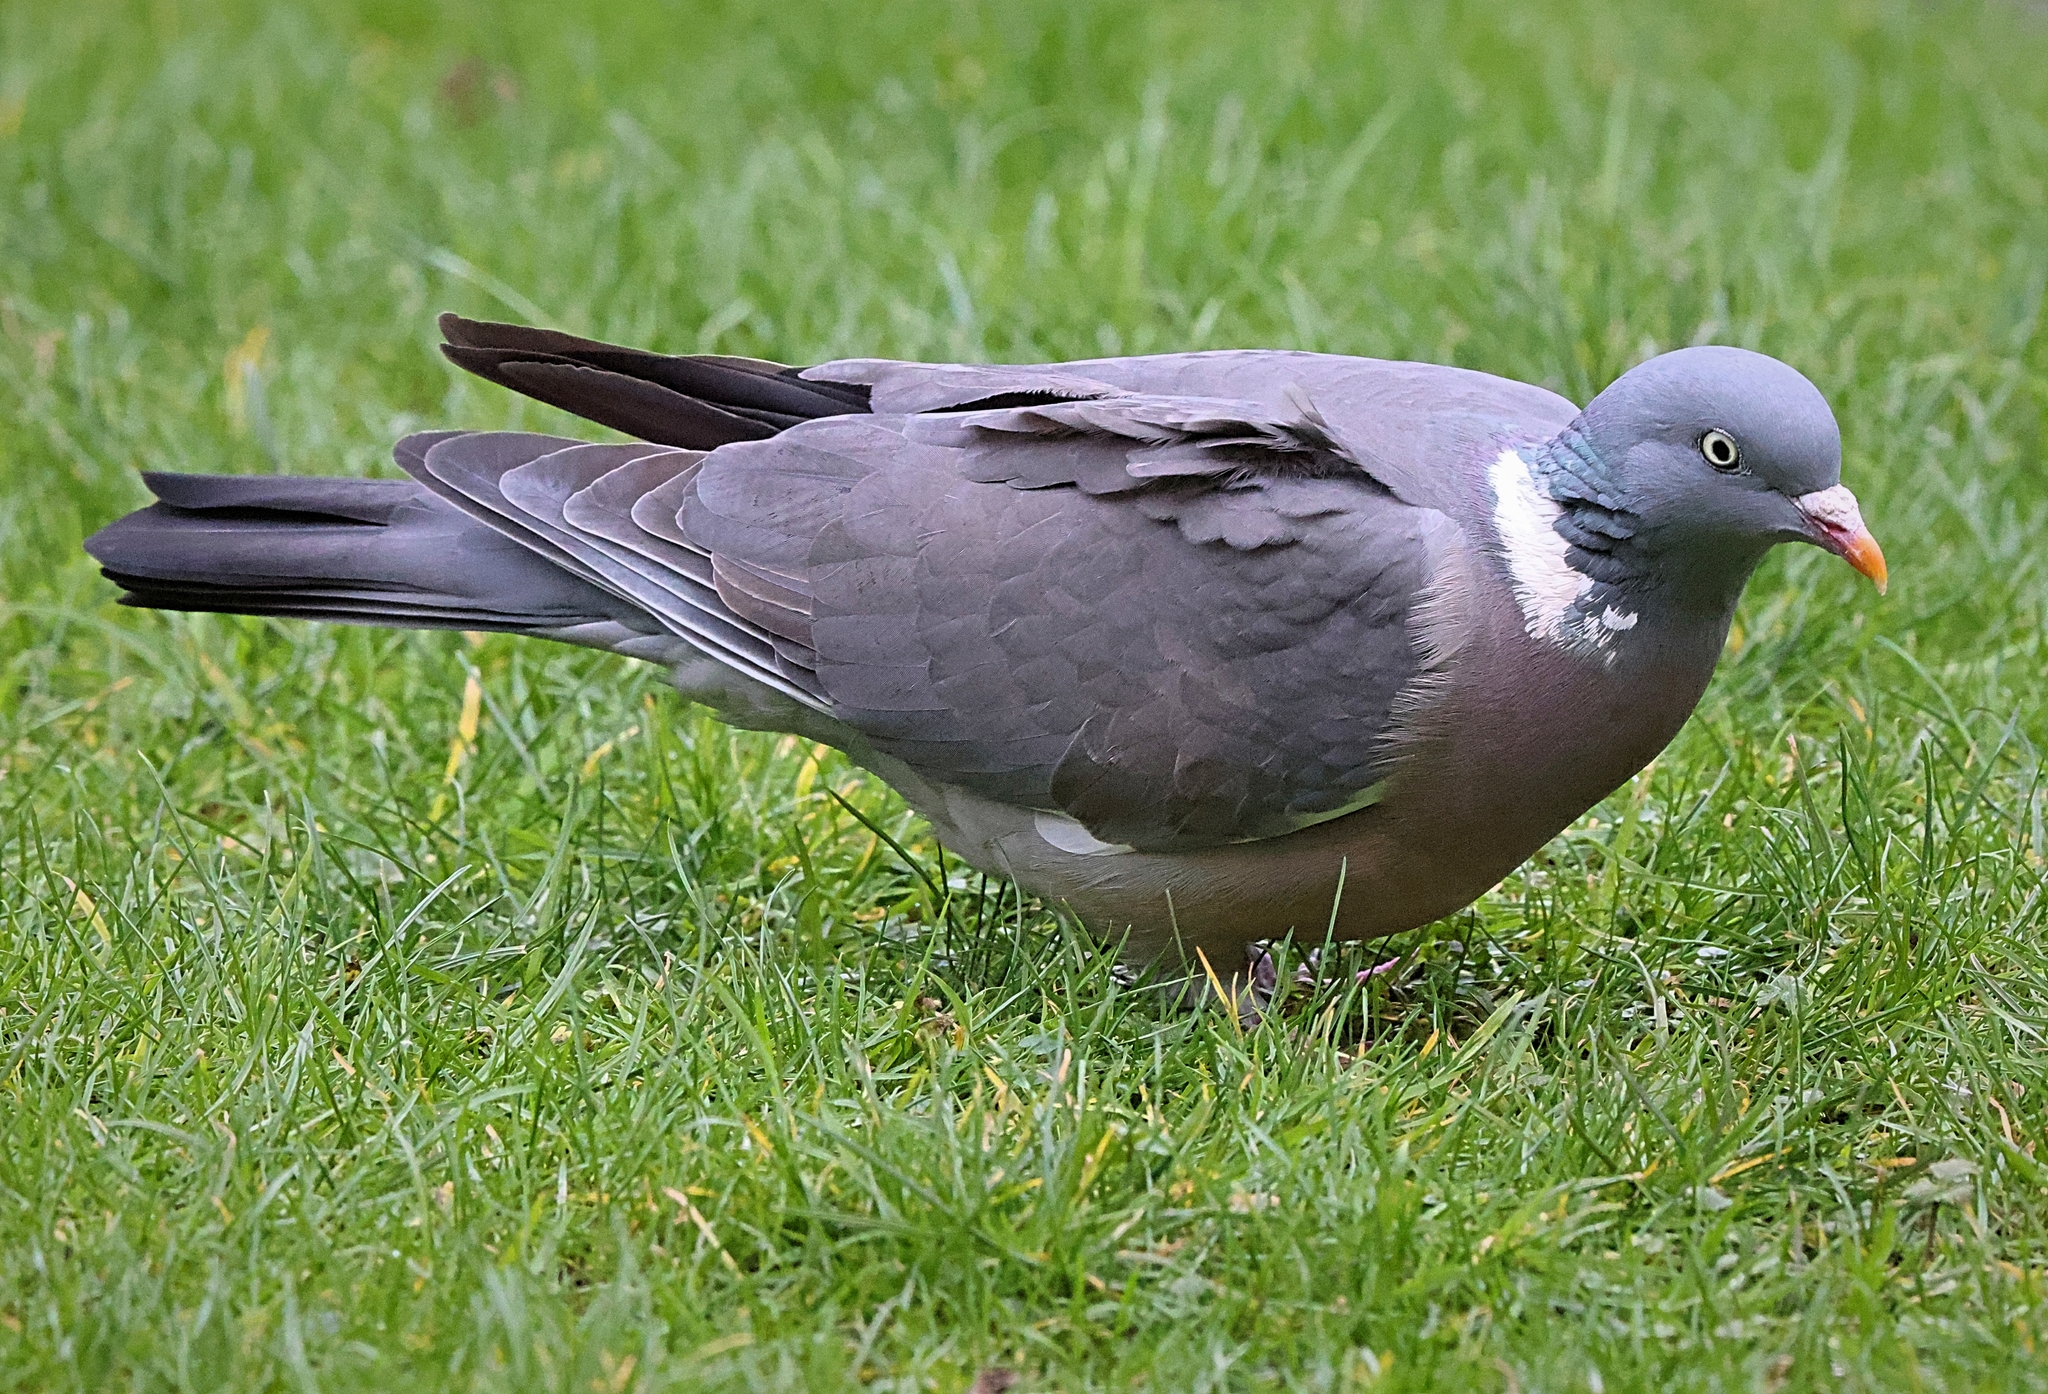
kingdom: Animalia
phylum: Chordata
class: Aves
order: Columbiformes
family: Columbidae
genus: Columba
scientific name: Columba palumbus
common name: Common wood pigeon
